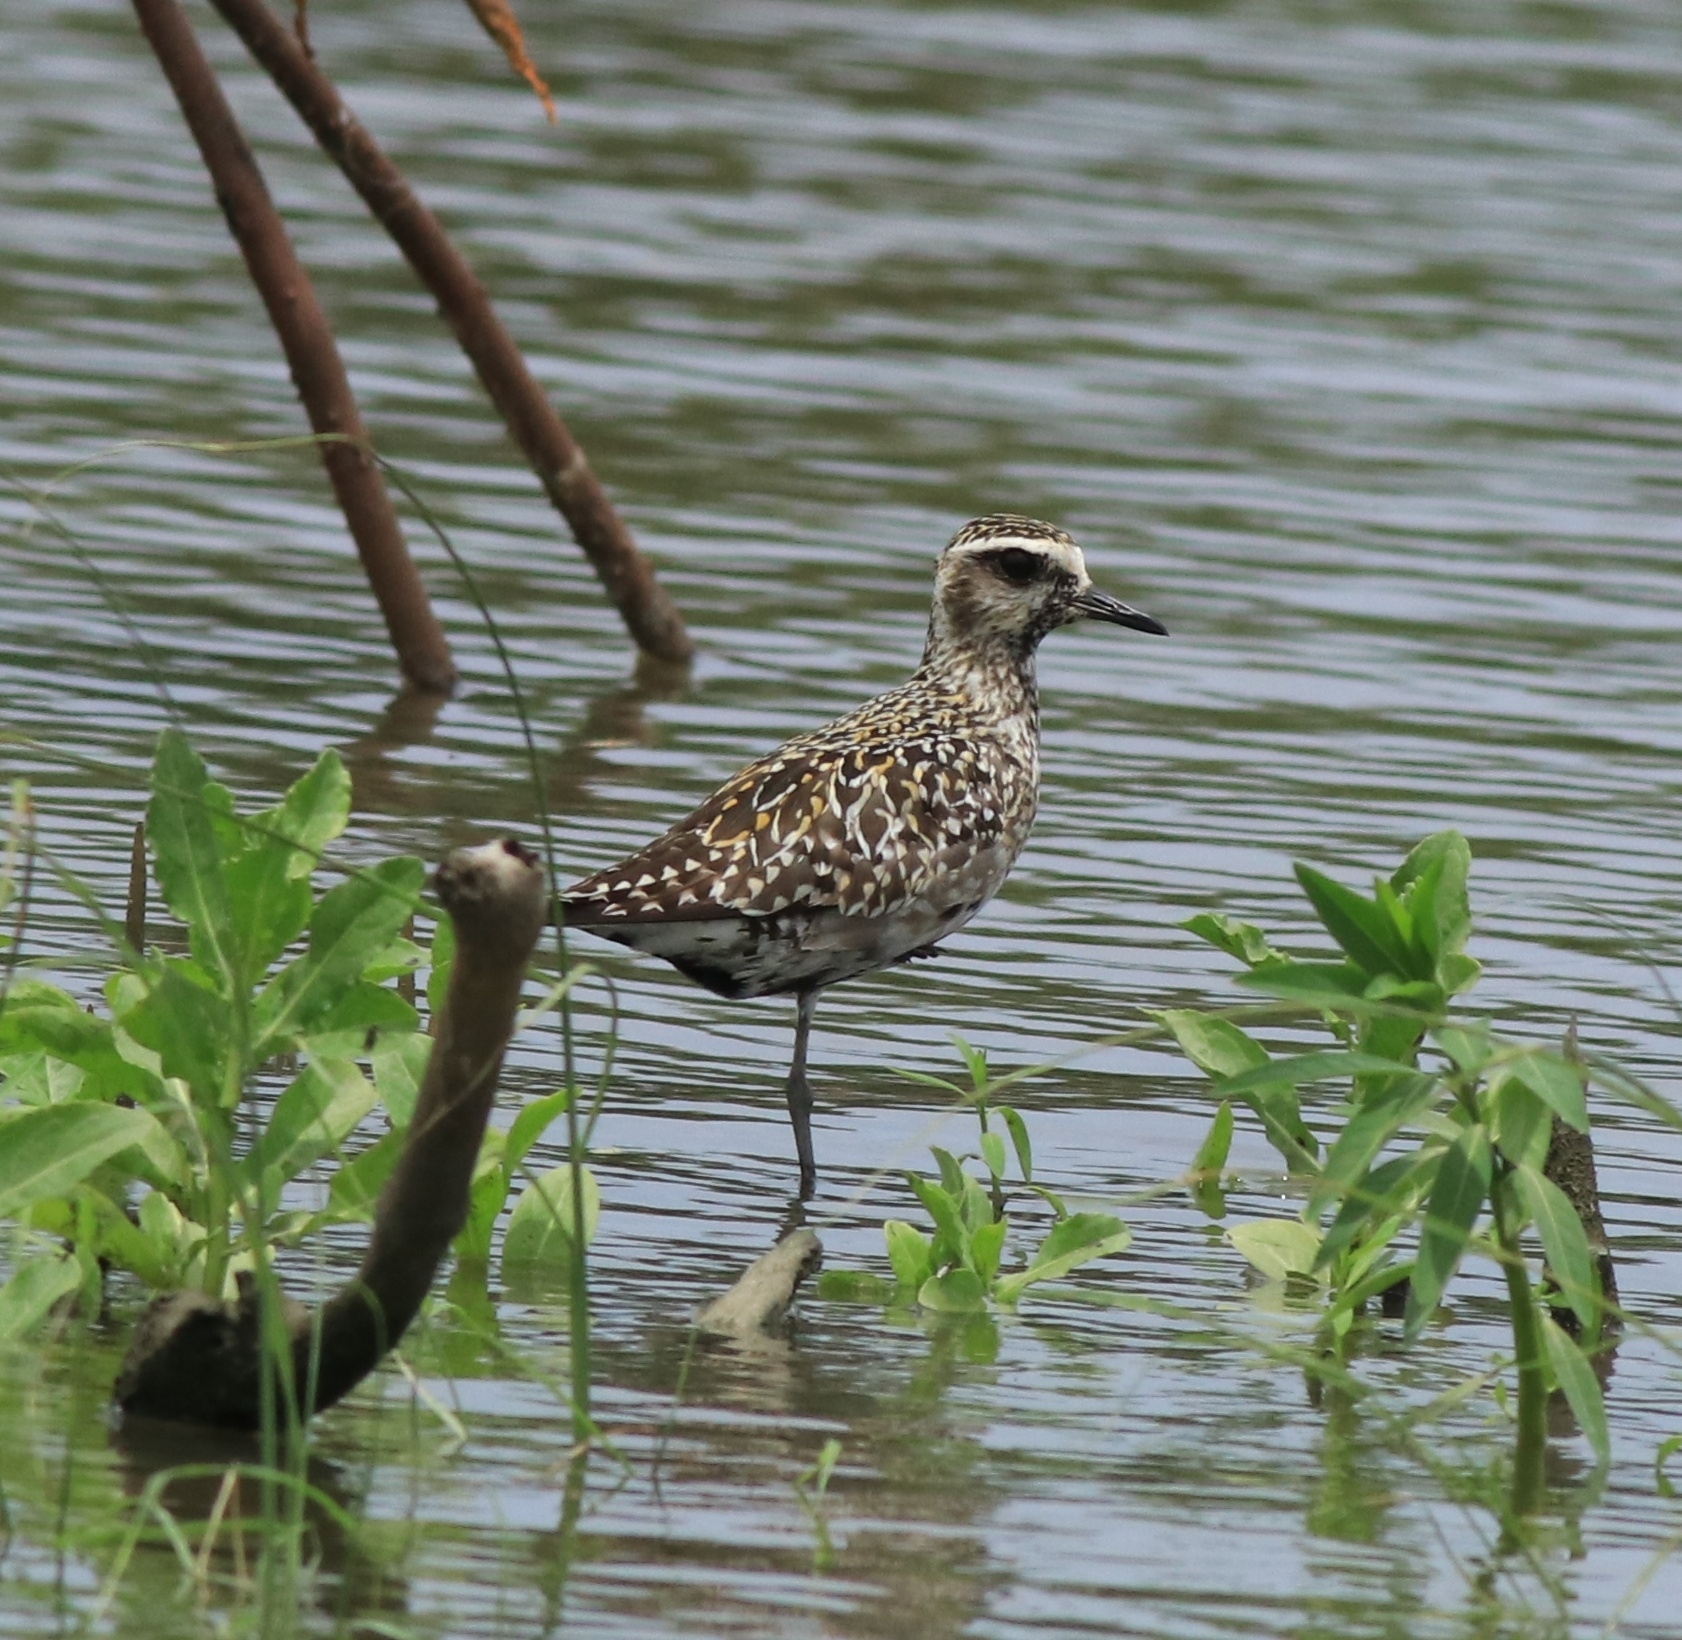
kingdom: Animalia
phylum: Chordata
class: Aves
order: Charadriiformes
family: Charadriidae
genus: Pluvialis
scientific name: Pluvialis fulva
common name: Pacific golden plover
